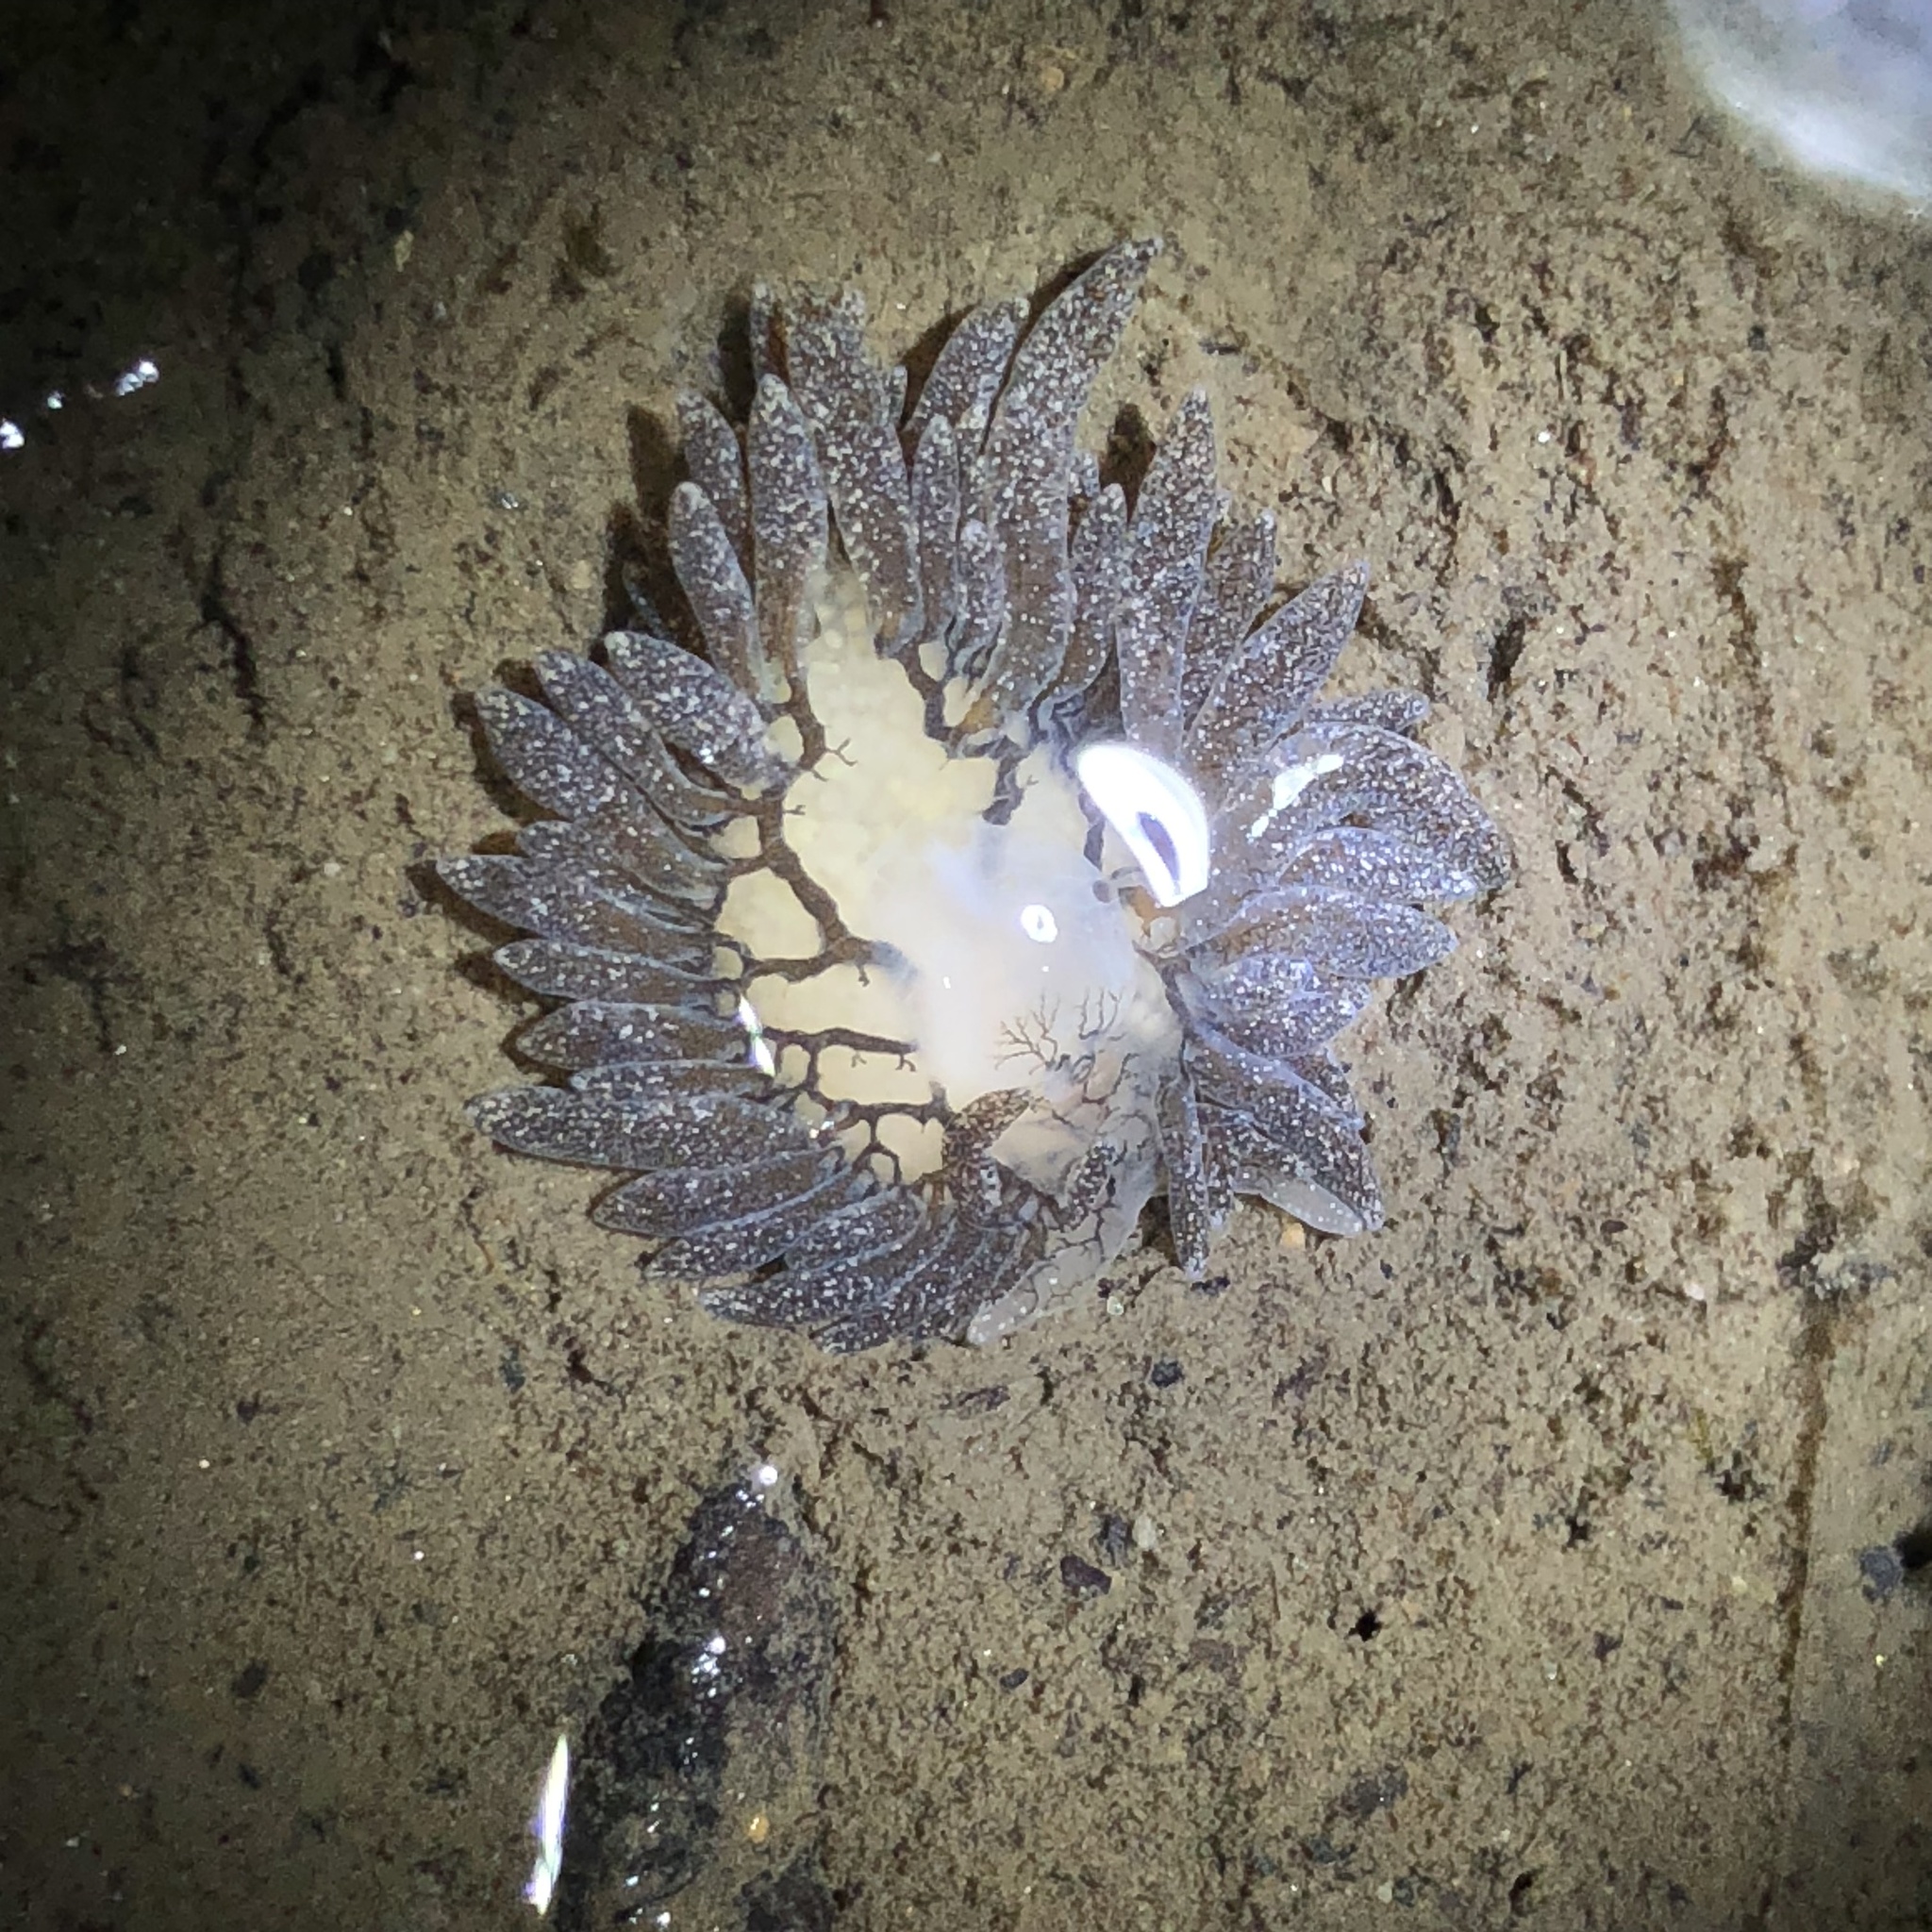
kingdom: Animalia
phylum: Mollusca
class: Gastropoda
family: Limapontiidae
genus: Placida
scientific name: Placida dendritica
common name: Dendritic nudibranch
